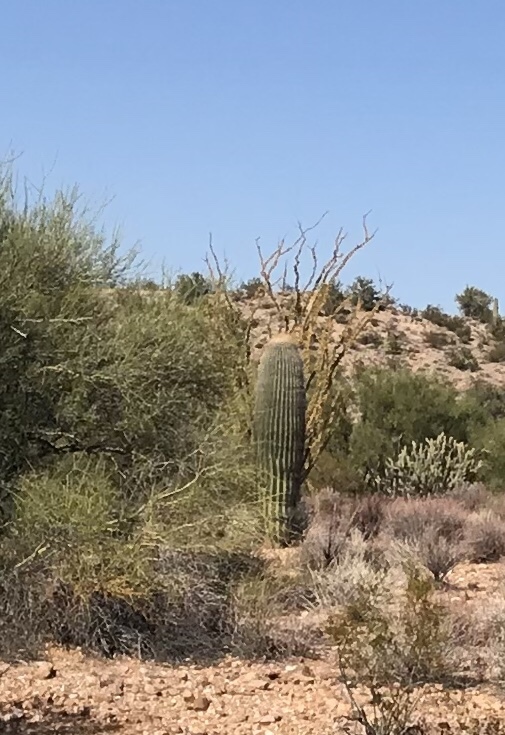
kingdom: Plantae
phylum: Tracheophyta
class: Magnoliopsida
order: Caryophyllales
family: Cactaceae
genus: Carnegiea
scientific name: Carnegiea gigantea
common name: Saguaro
